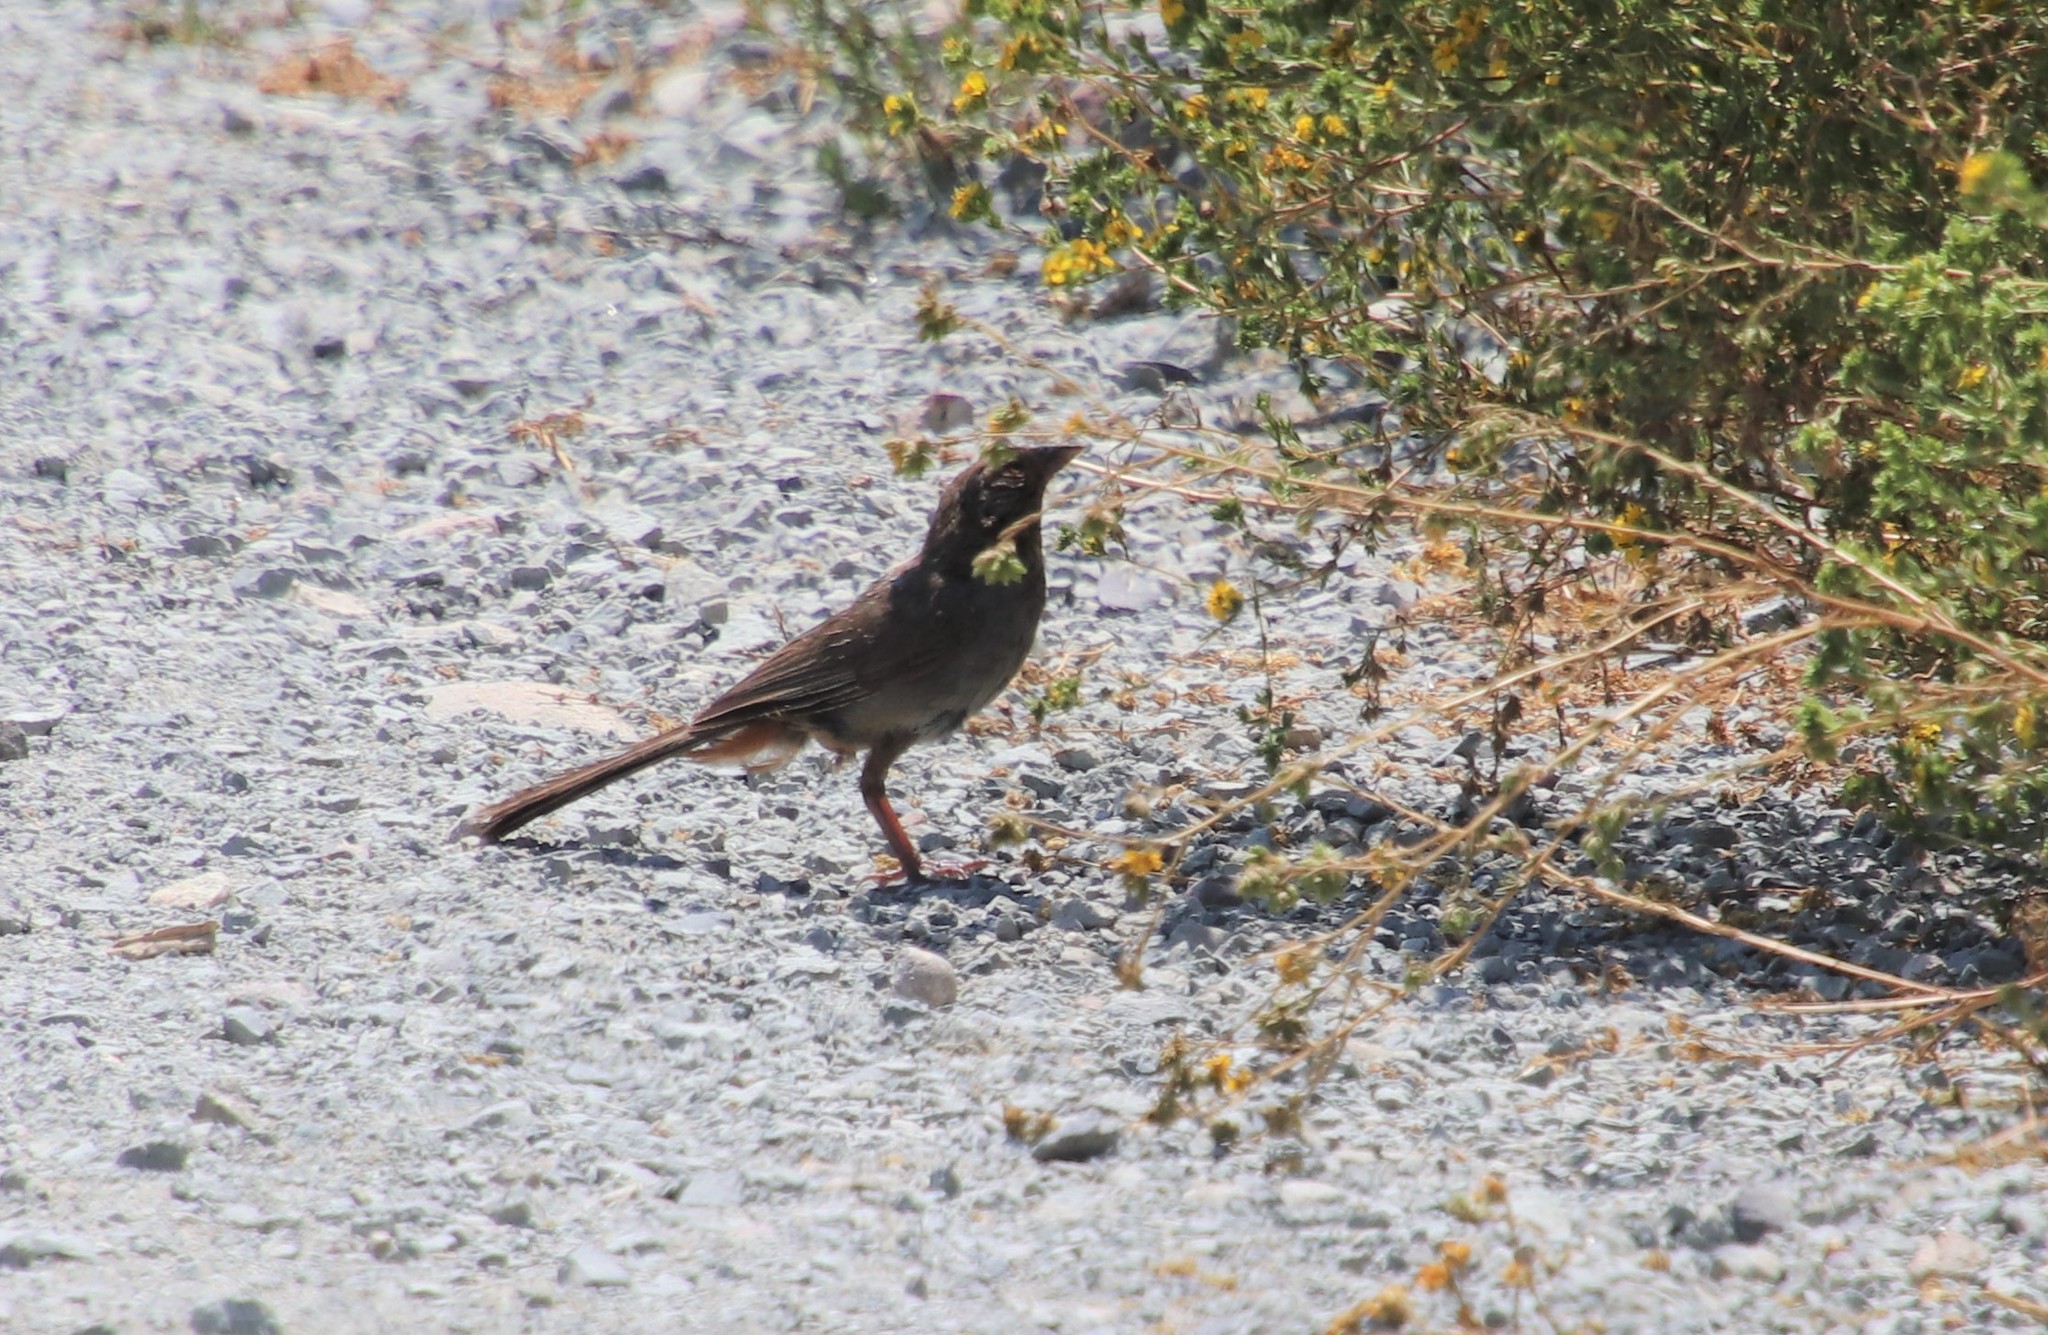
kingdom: Animalia
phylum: Chordata
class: Aves
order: Passeriformes
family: Passerellidae
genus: Melozone
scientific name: Melozone crissalis
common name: California towhee
